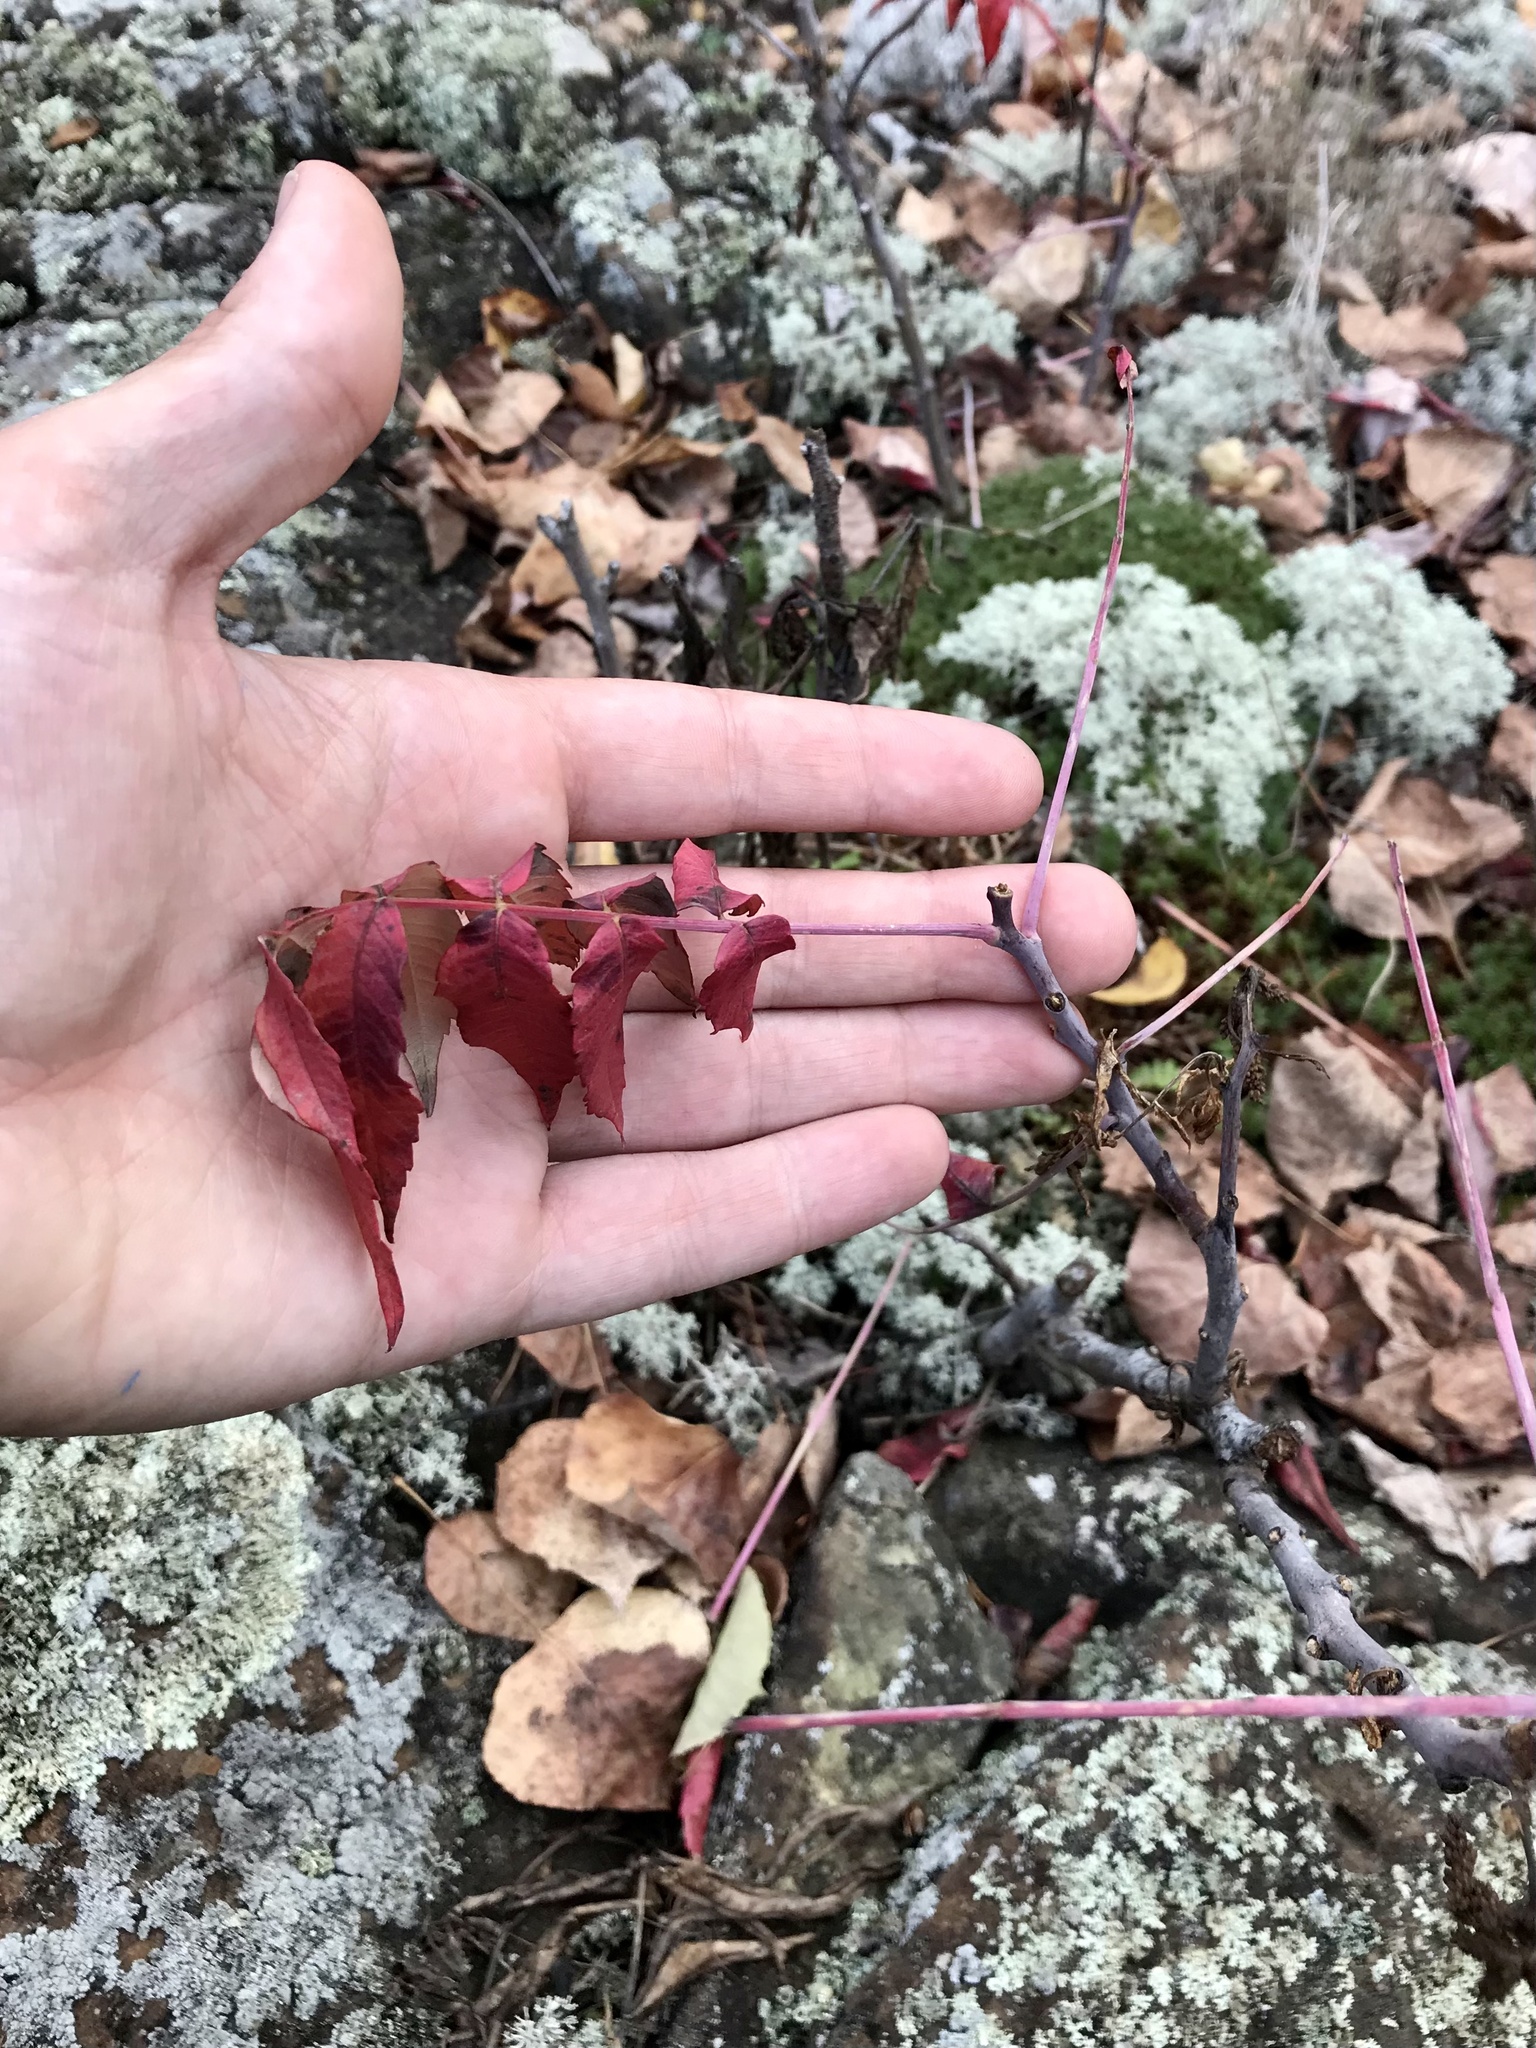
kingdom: Plantae
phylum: Tracheophyta
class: Magnoliopsida
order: Sapindales
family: Anacardiaceae
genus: Rhus
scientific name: Rhus glabra
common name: Scarlet sumac
